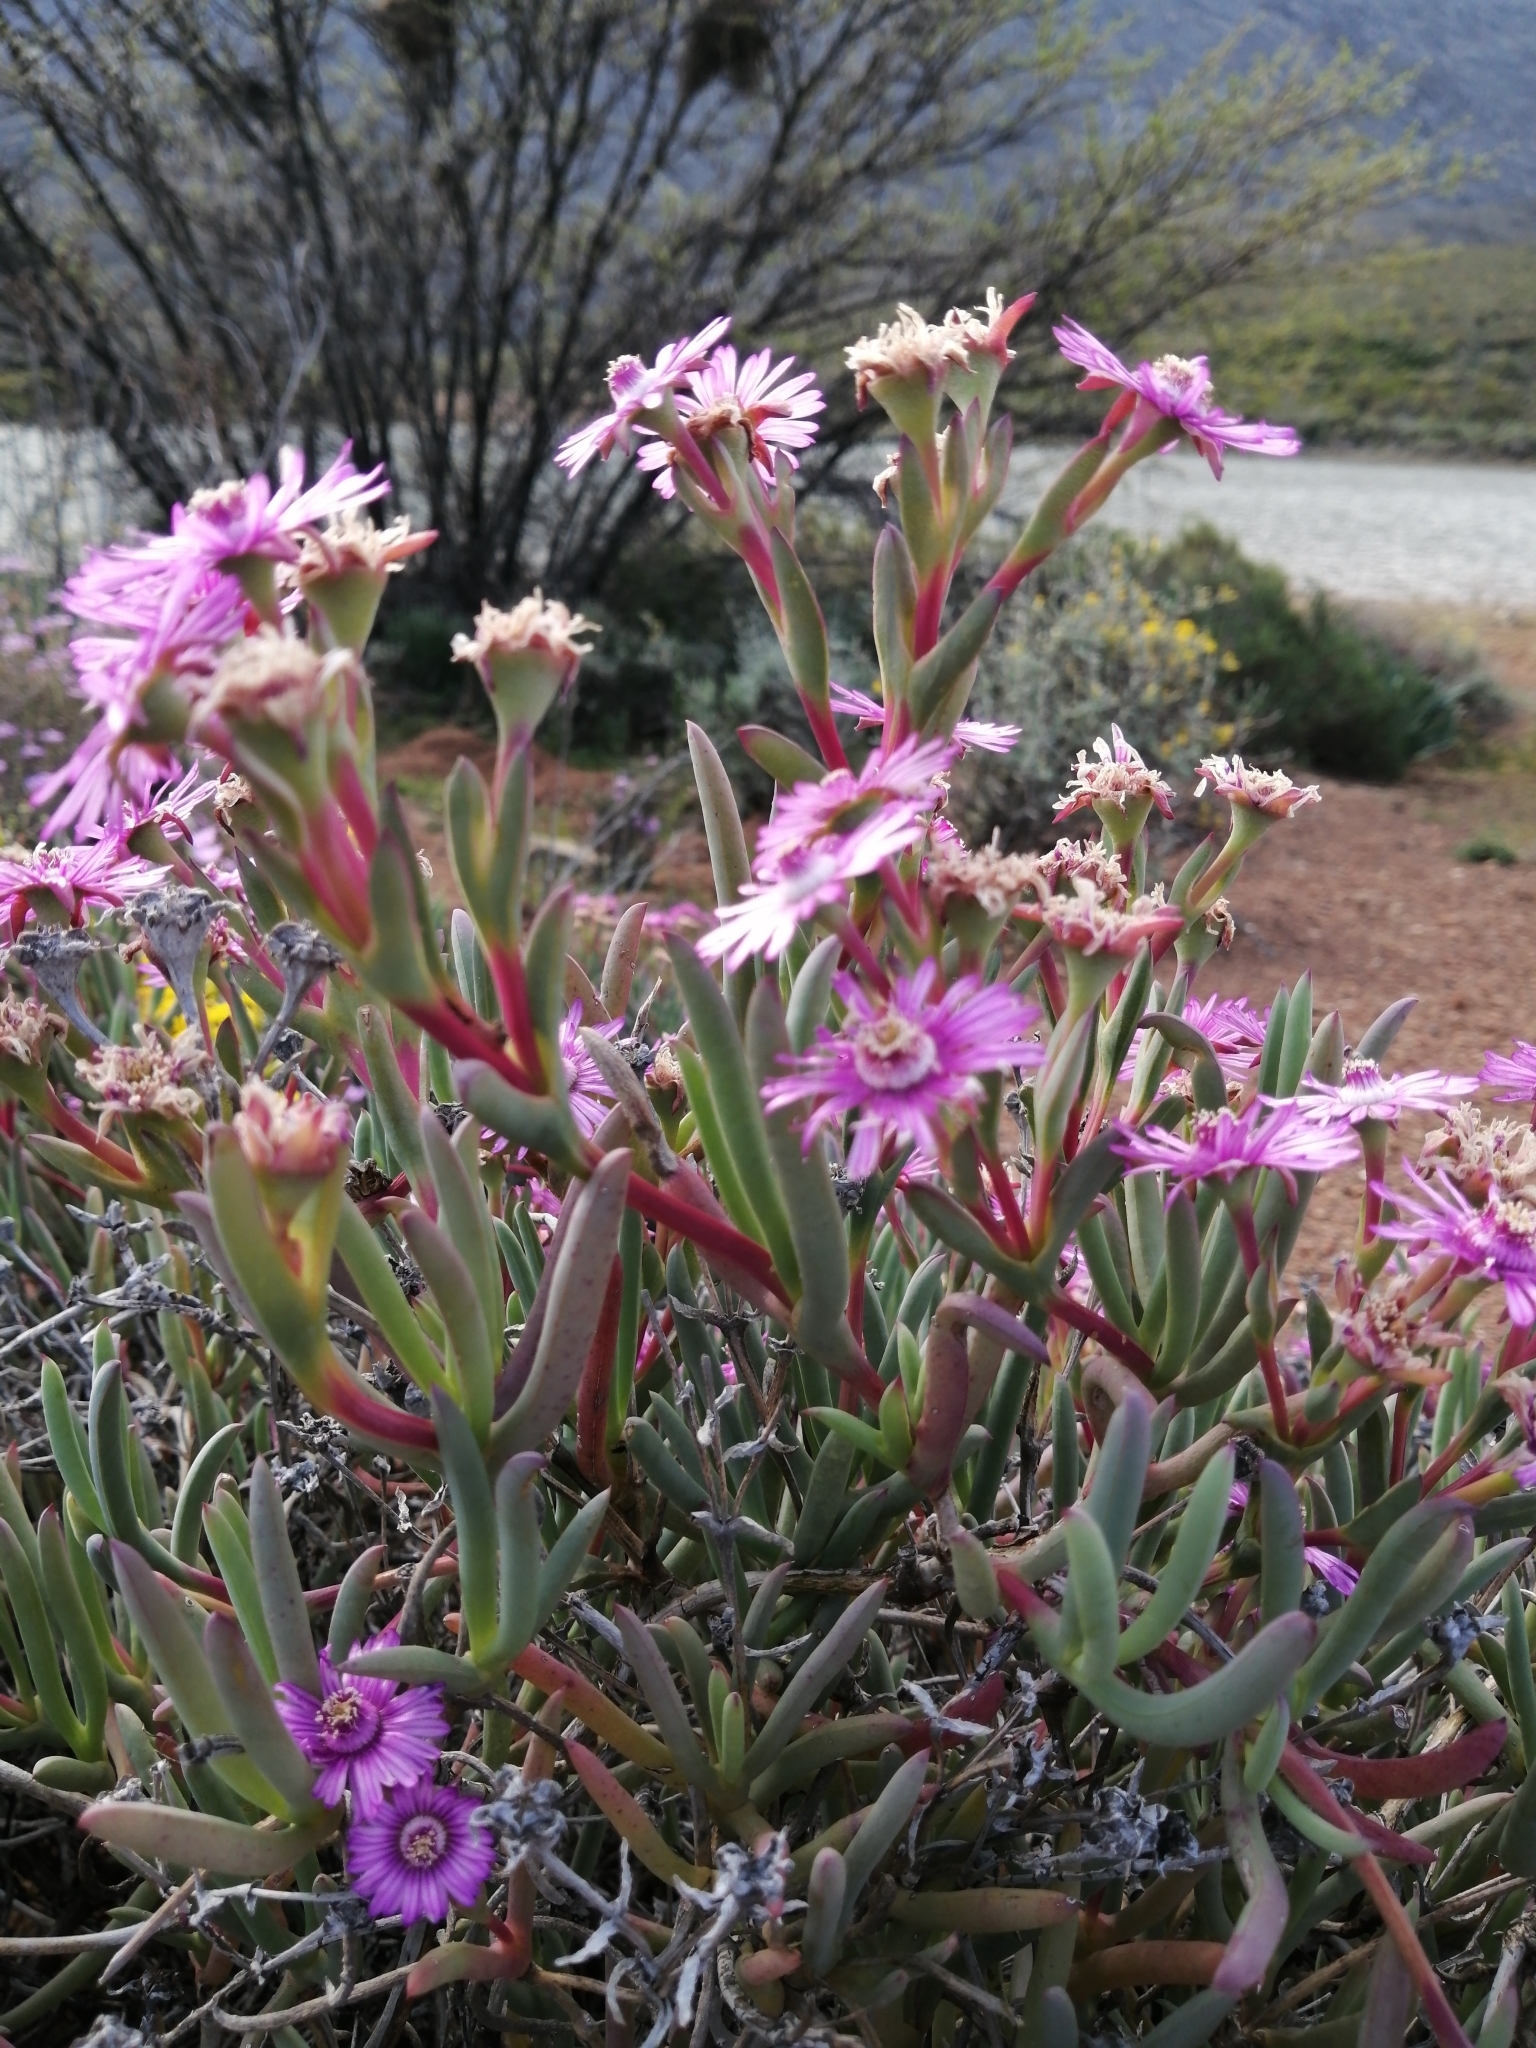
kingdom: Plantae
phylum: Tracheophyta
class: Magnoliopsida
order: Caryophyllales
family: Aizoaceae
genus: Ruschia
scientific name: Ruschia caroli
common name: Shrubby dewplant
